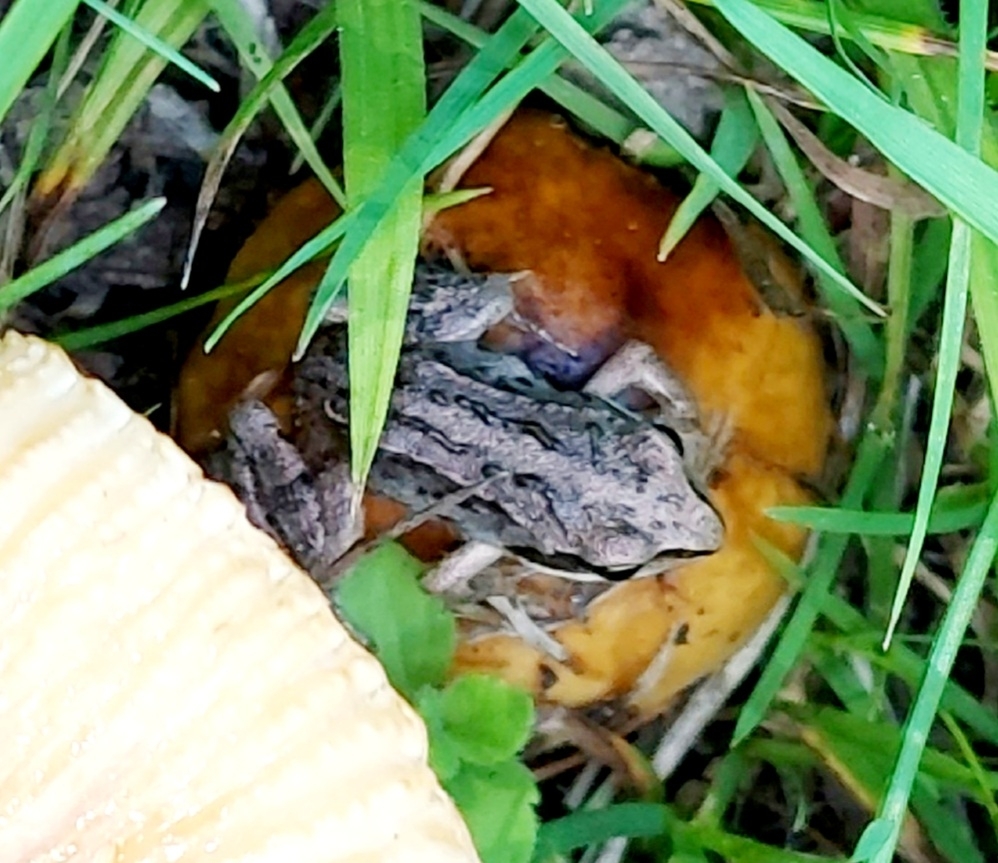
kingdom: Animalia
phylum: Chordata
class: Amphibia
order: Anura
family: Ranidae
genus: Rana
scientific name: Rana arvalis
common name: Moor frog
